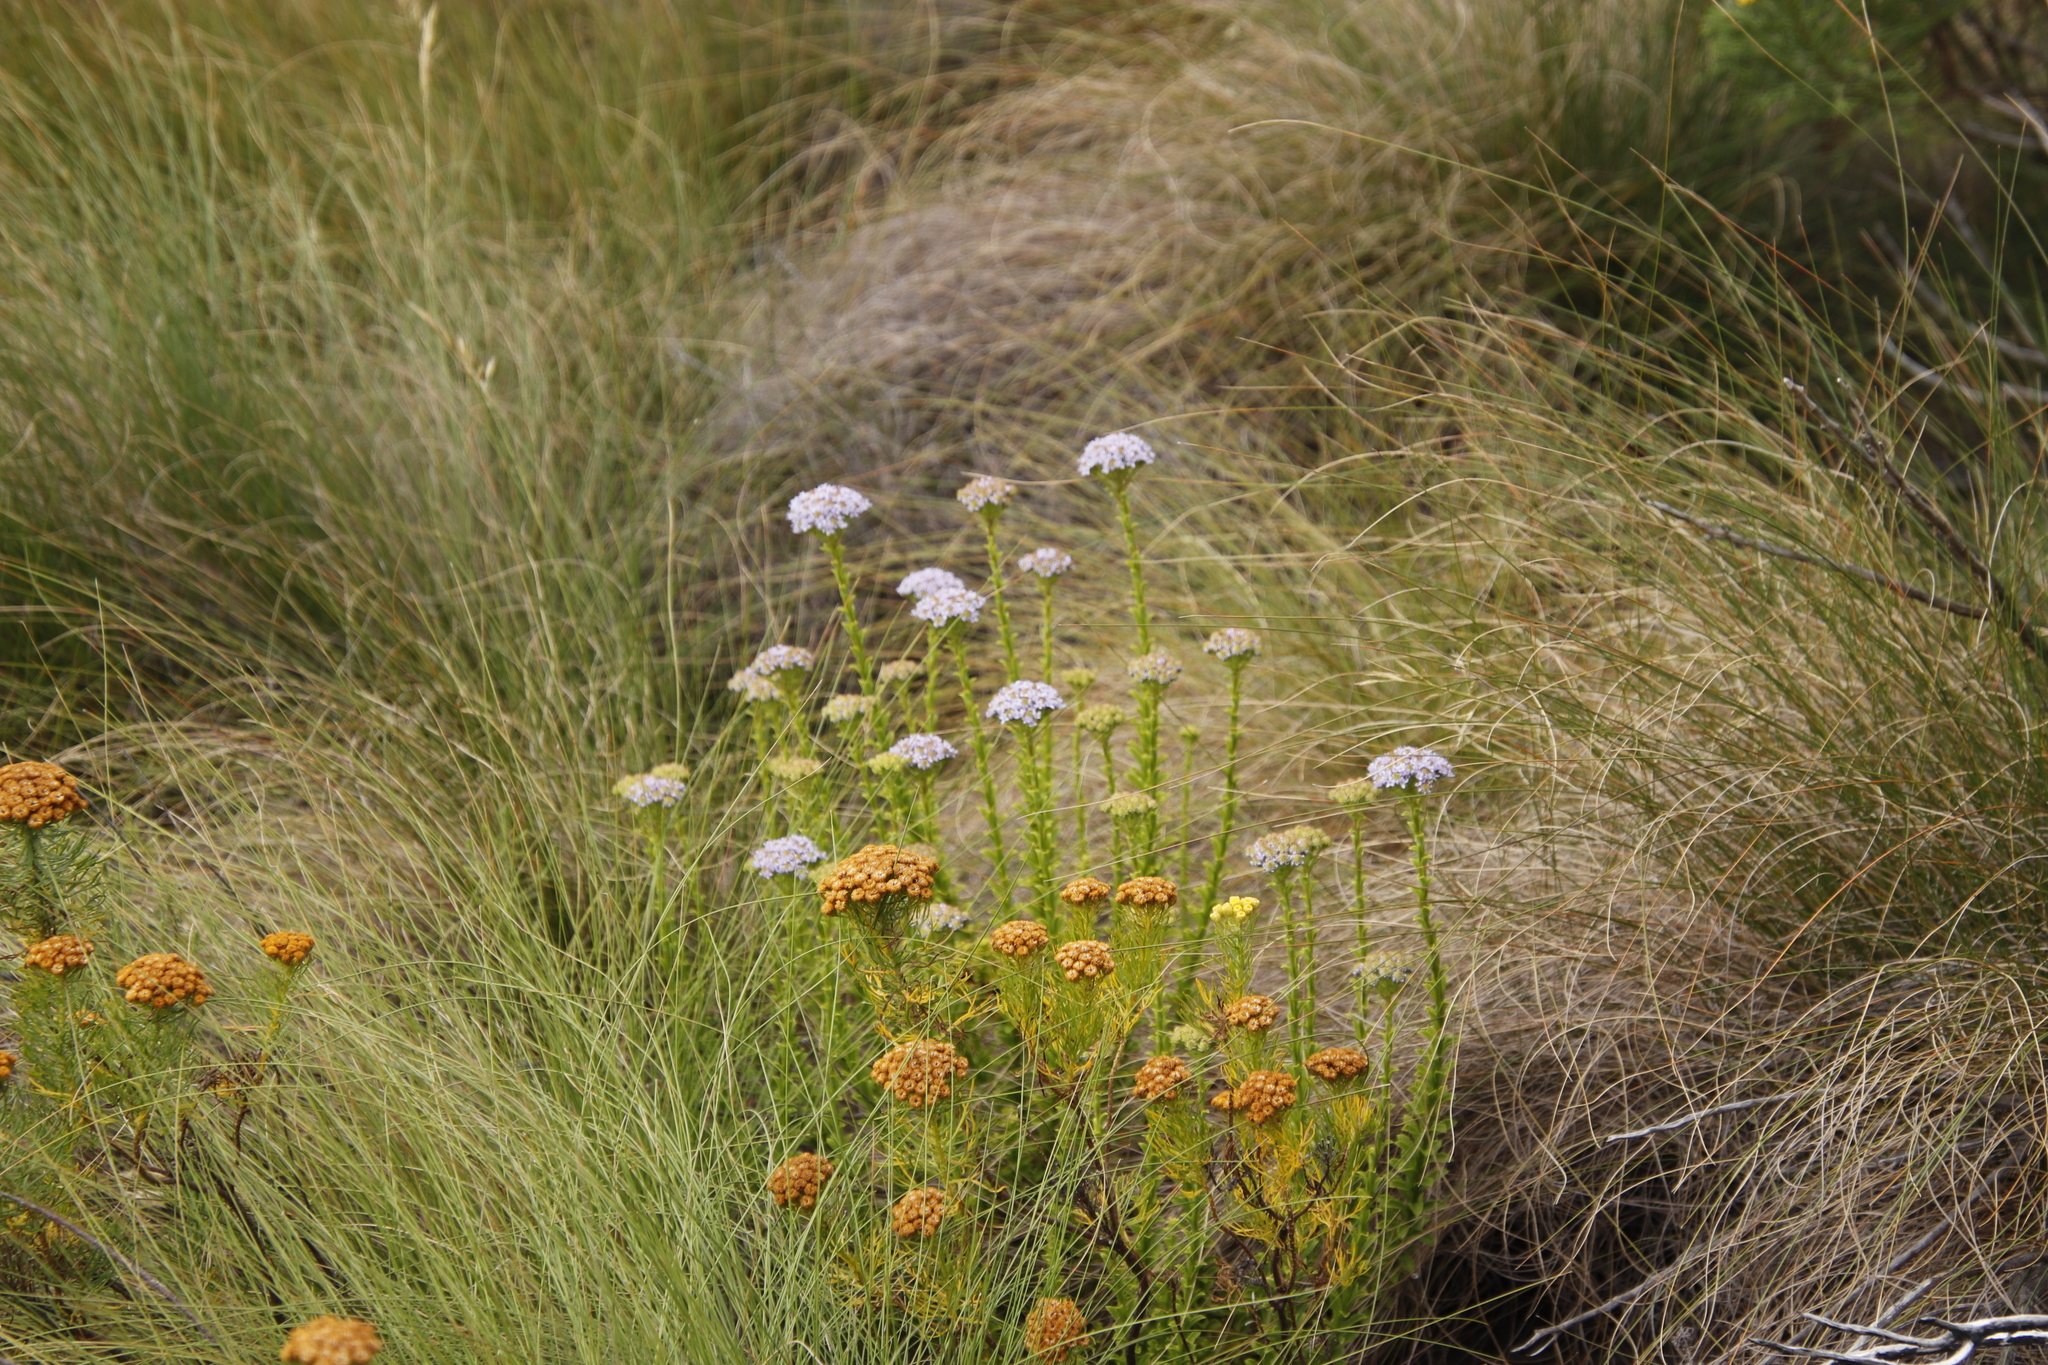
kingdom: Plantae
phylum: Tracheophyta
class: Magnoliopsida
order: Lamiales
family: Scrophulariaceae
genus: Pseudoselago
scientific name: Pseudoselago serrata
